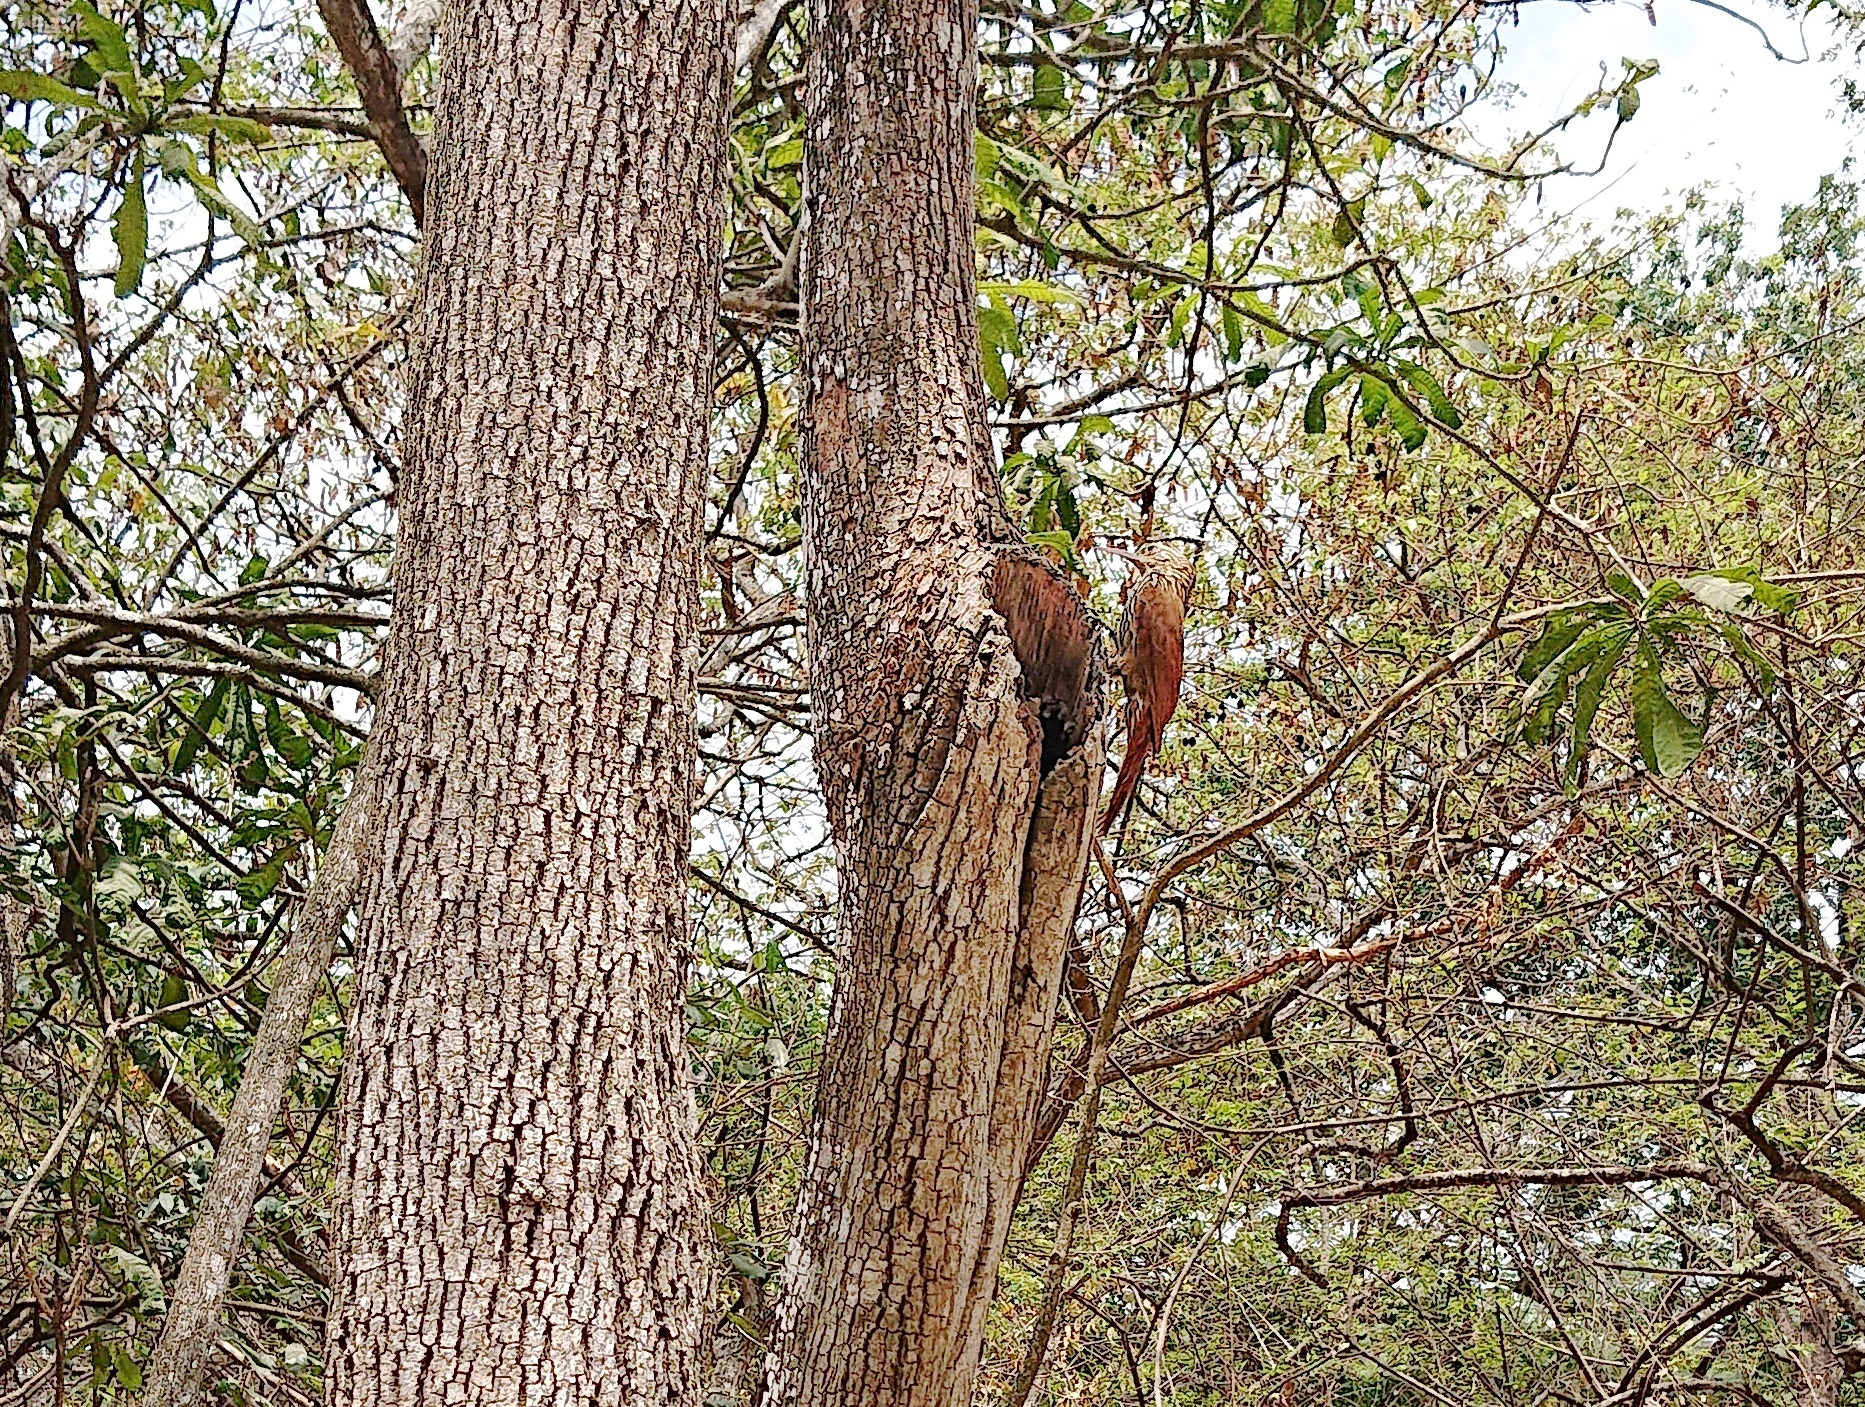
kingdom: Animalia
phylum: Chordata
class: Aves
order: Passeriformes
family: Furnariidae
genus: Lepidocolaptes
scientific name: Lepidocolaptes souleyetii
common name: Streak-headed woodcreeper
